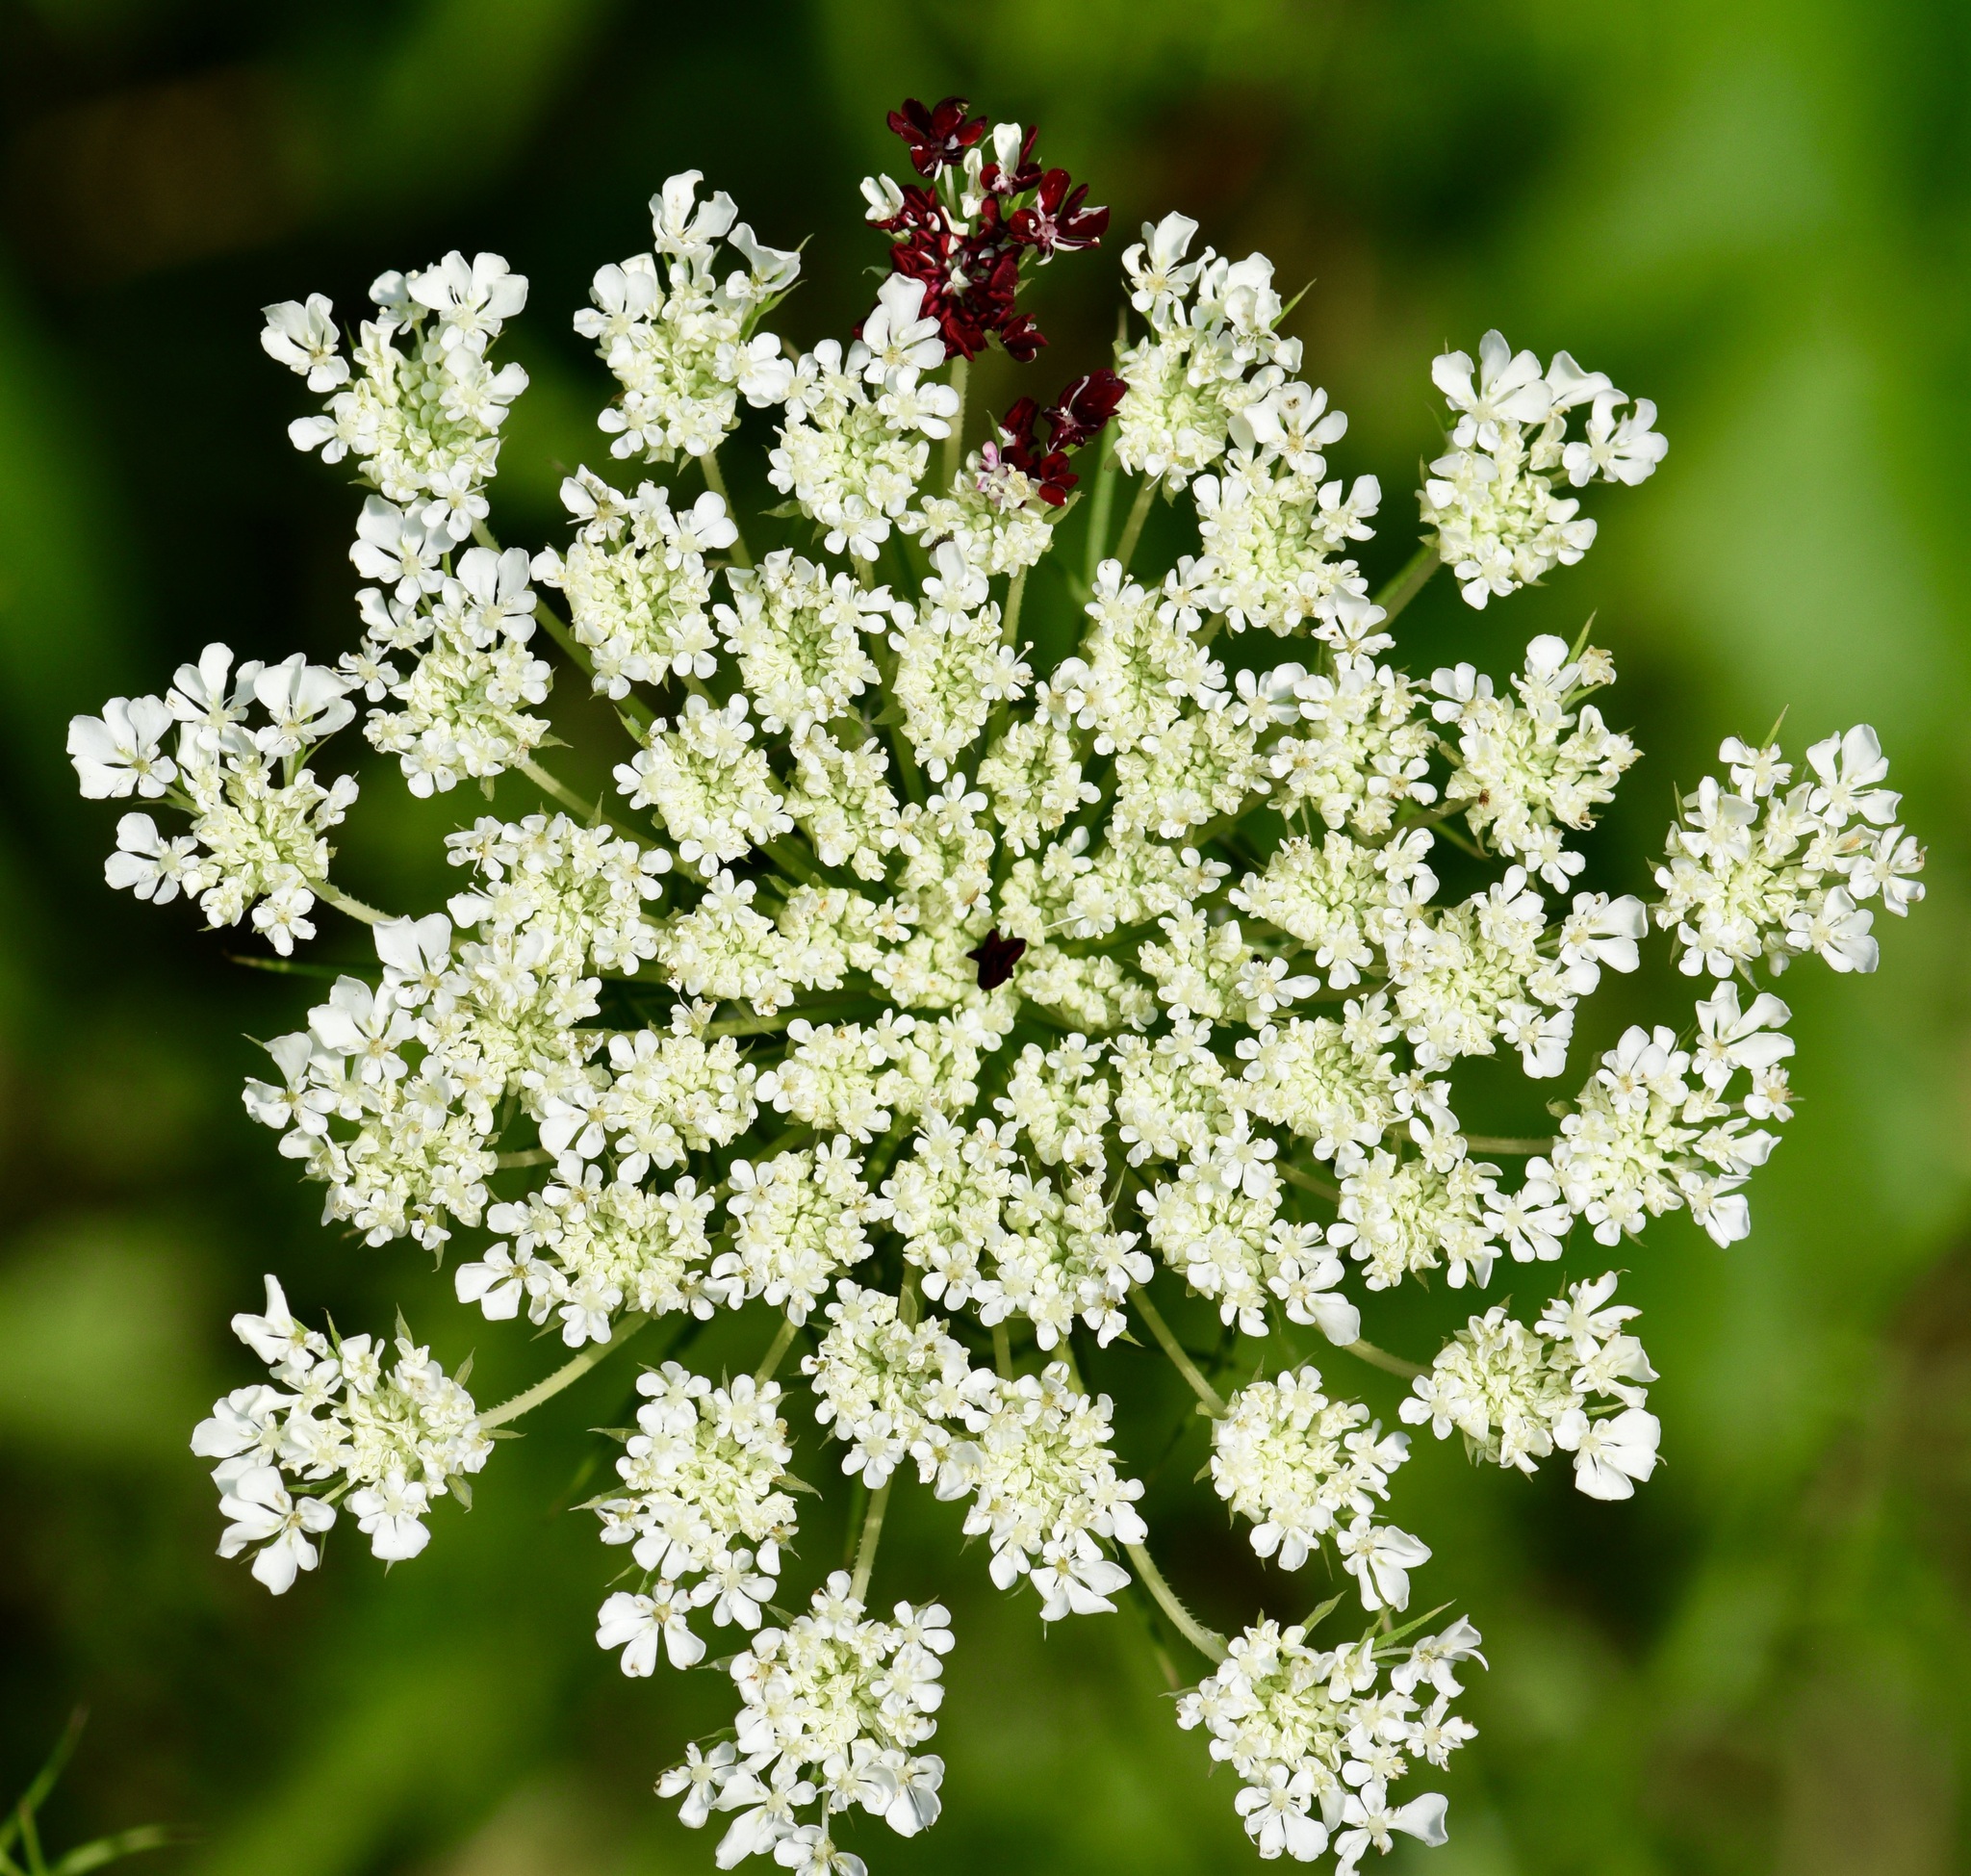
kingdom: Plantae
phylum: Tracheophyta
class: Magnoliopsida
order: Apiales
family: Apiaceae
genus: Daucus
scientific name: Daucus carota
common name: Wild carrot
